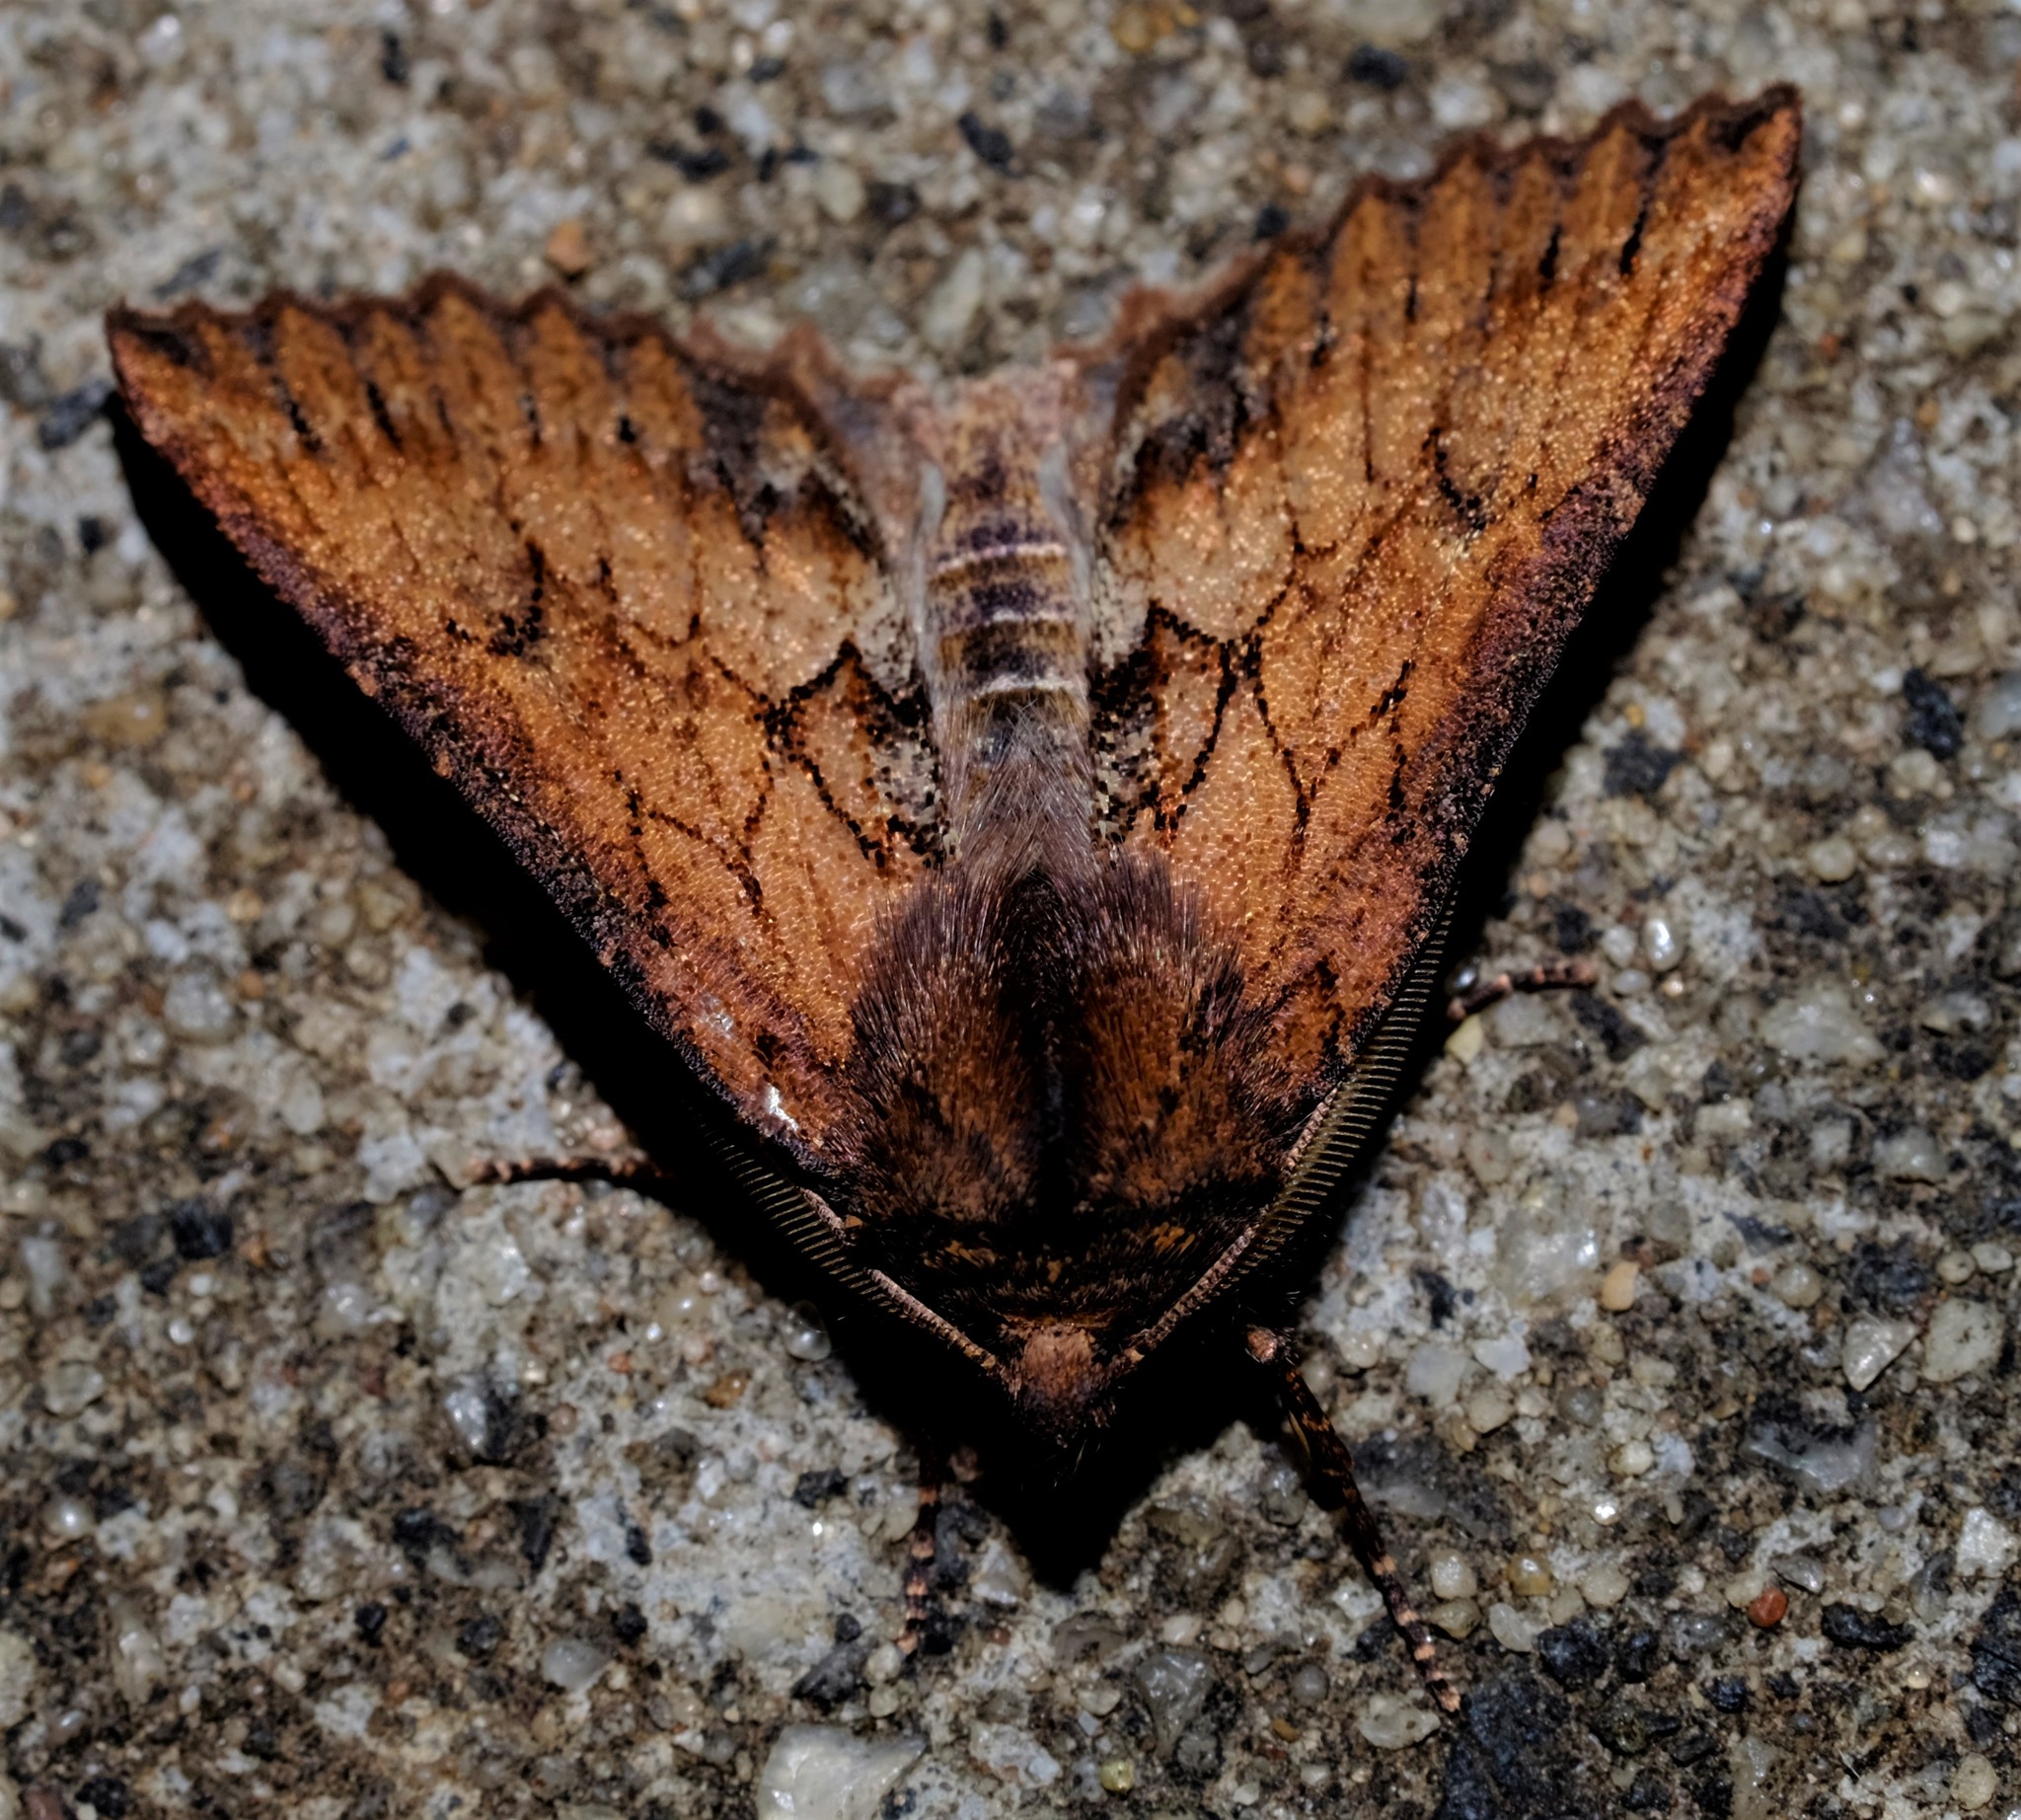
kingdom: Animalia
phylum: Arthropoda
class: Insecta
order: Lepidoptera
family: Geometridae
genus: Nisista
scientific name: Nisista serrata
